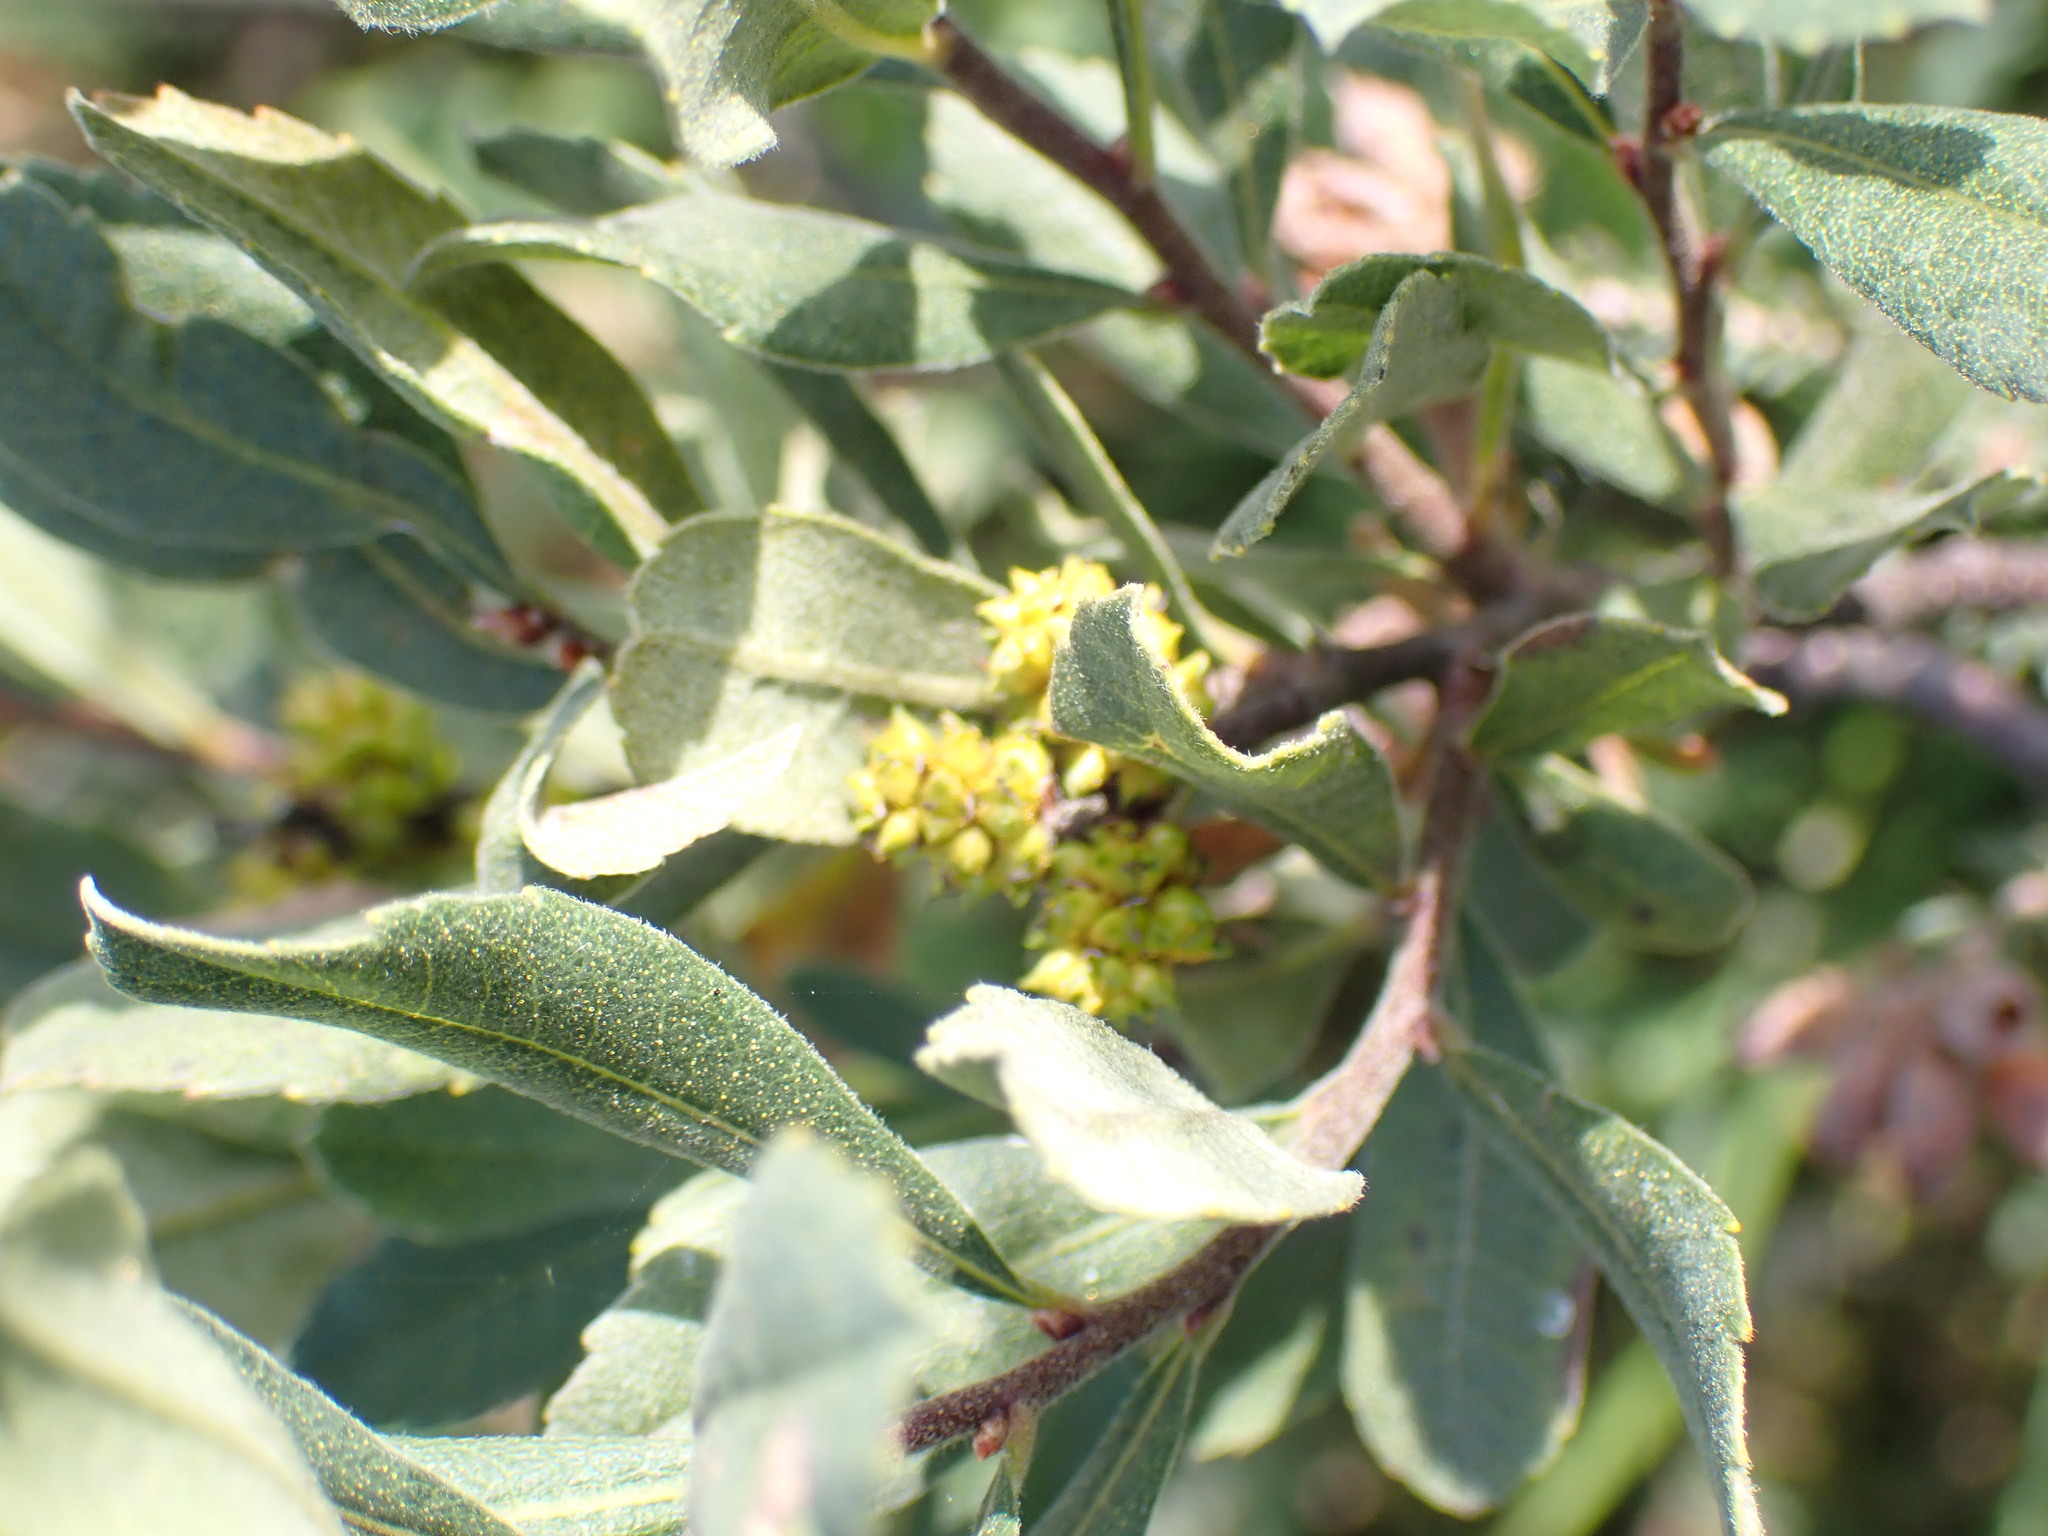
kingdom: Plantae
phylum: Tracheophyta
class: Magnoliopsida
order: Fagales
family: Myricaceae
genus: Myrica
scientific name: Myrica gale
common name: Sweet gale
